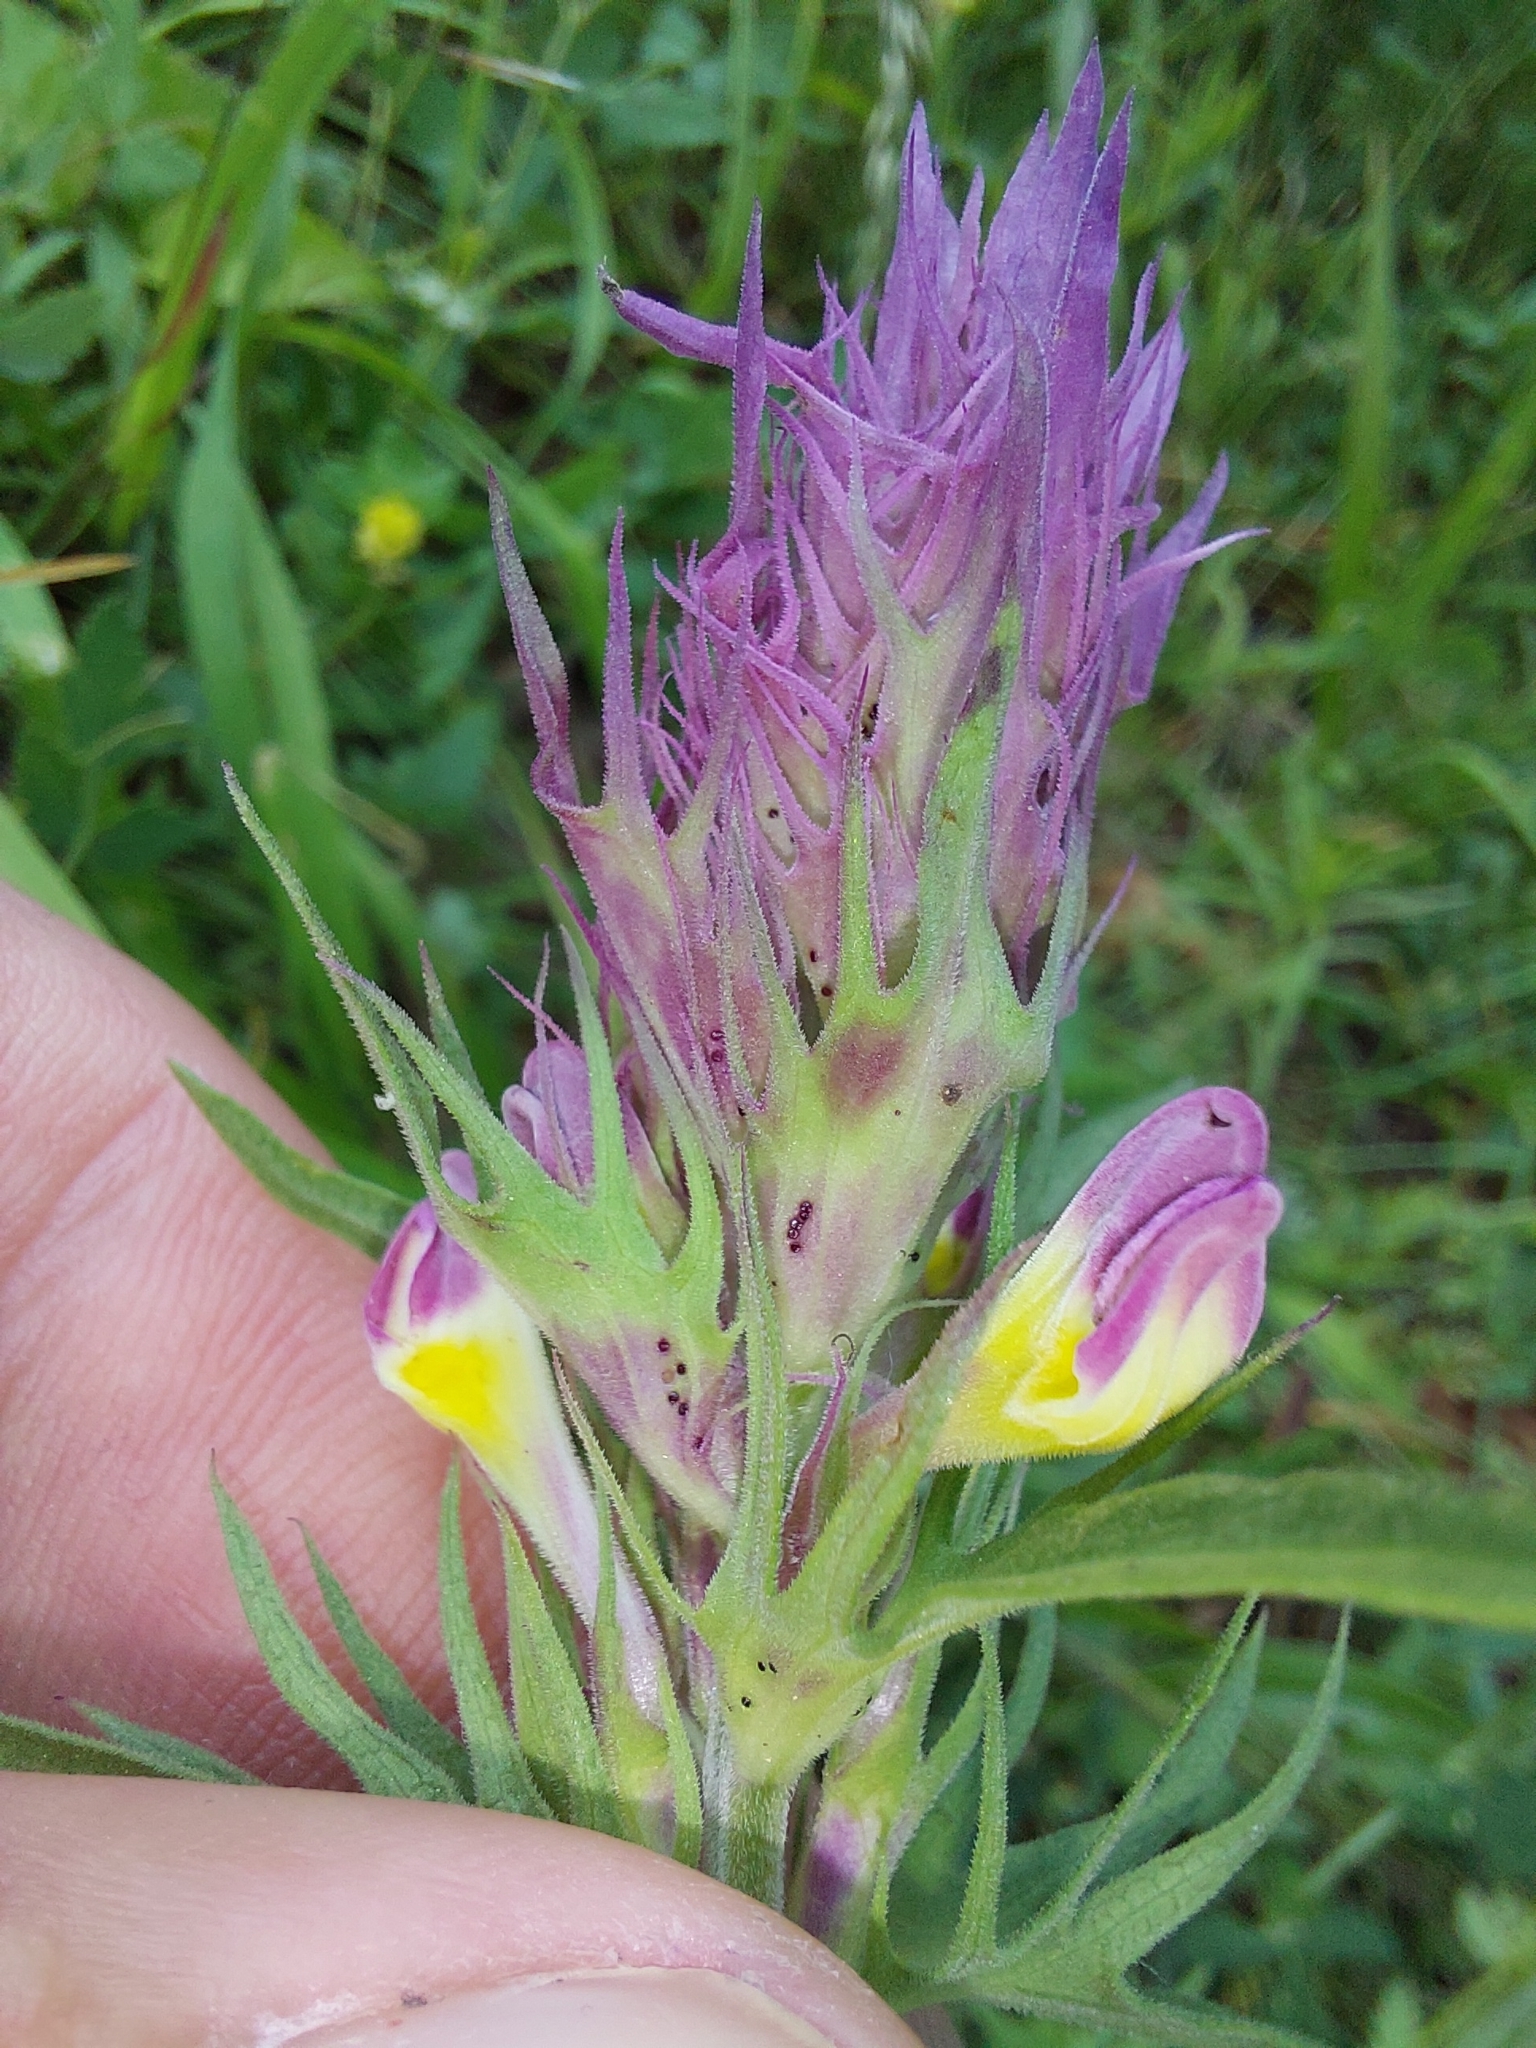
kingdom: Plantae
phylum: Tracheophyta
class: Magnoliopsida
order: Lamiales
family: Orobanchaceae
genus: Melampyrum
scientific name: Melampyrum arvense
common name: Field cow-wheat
